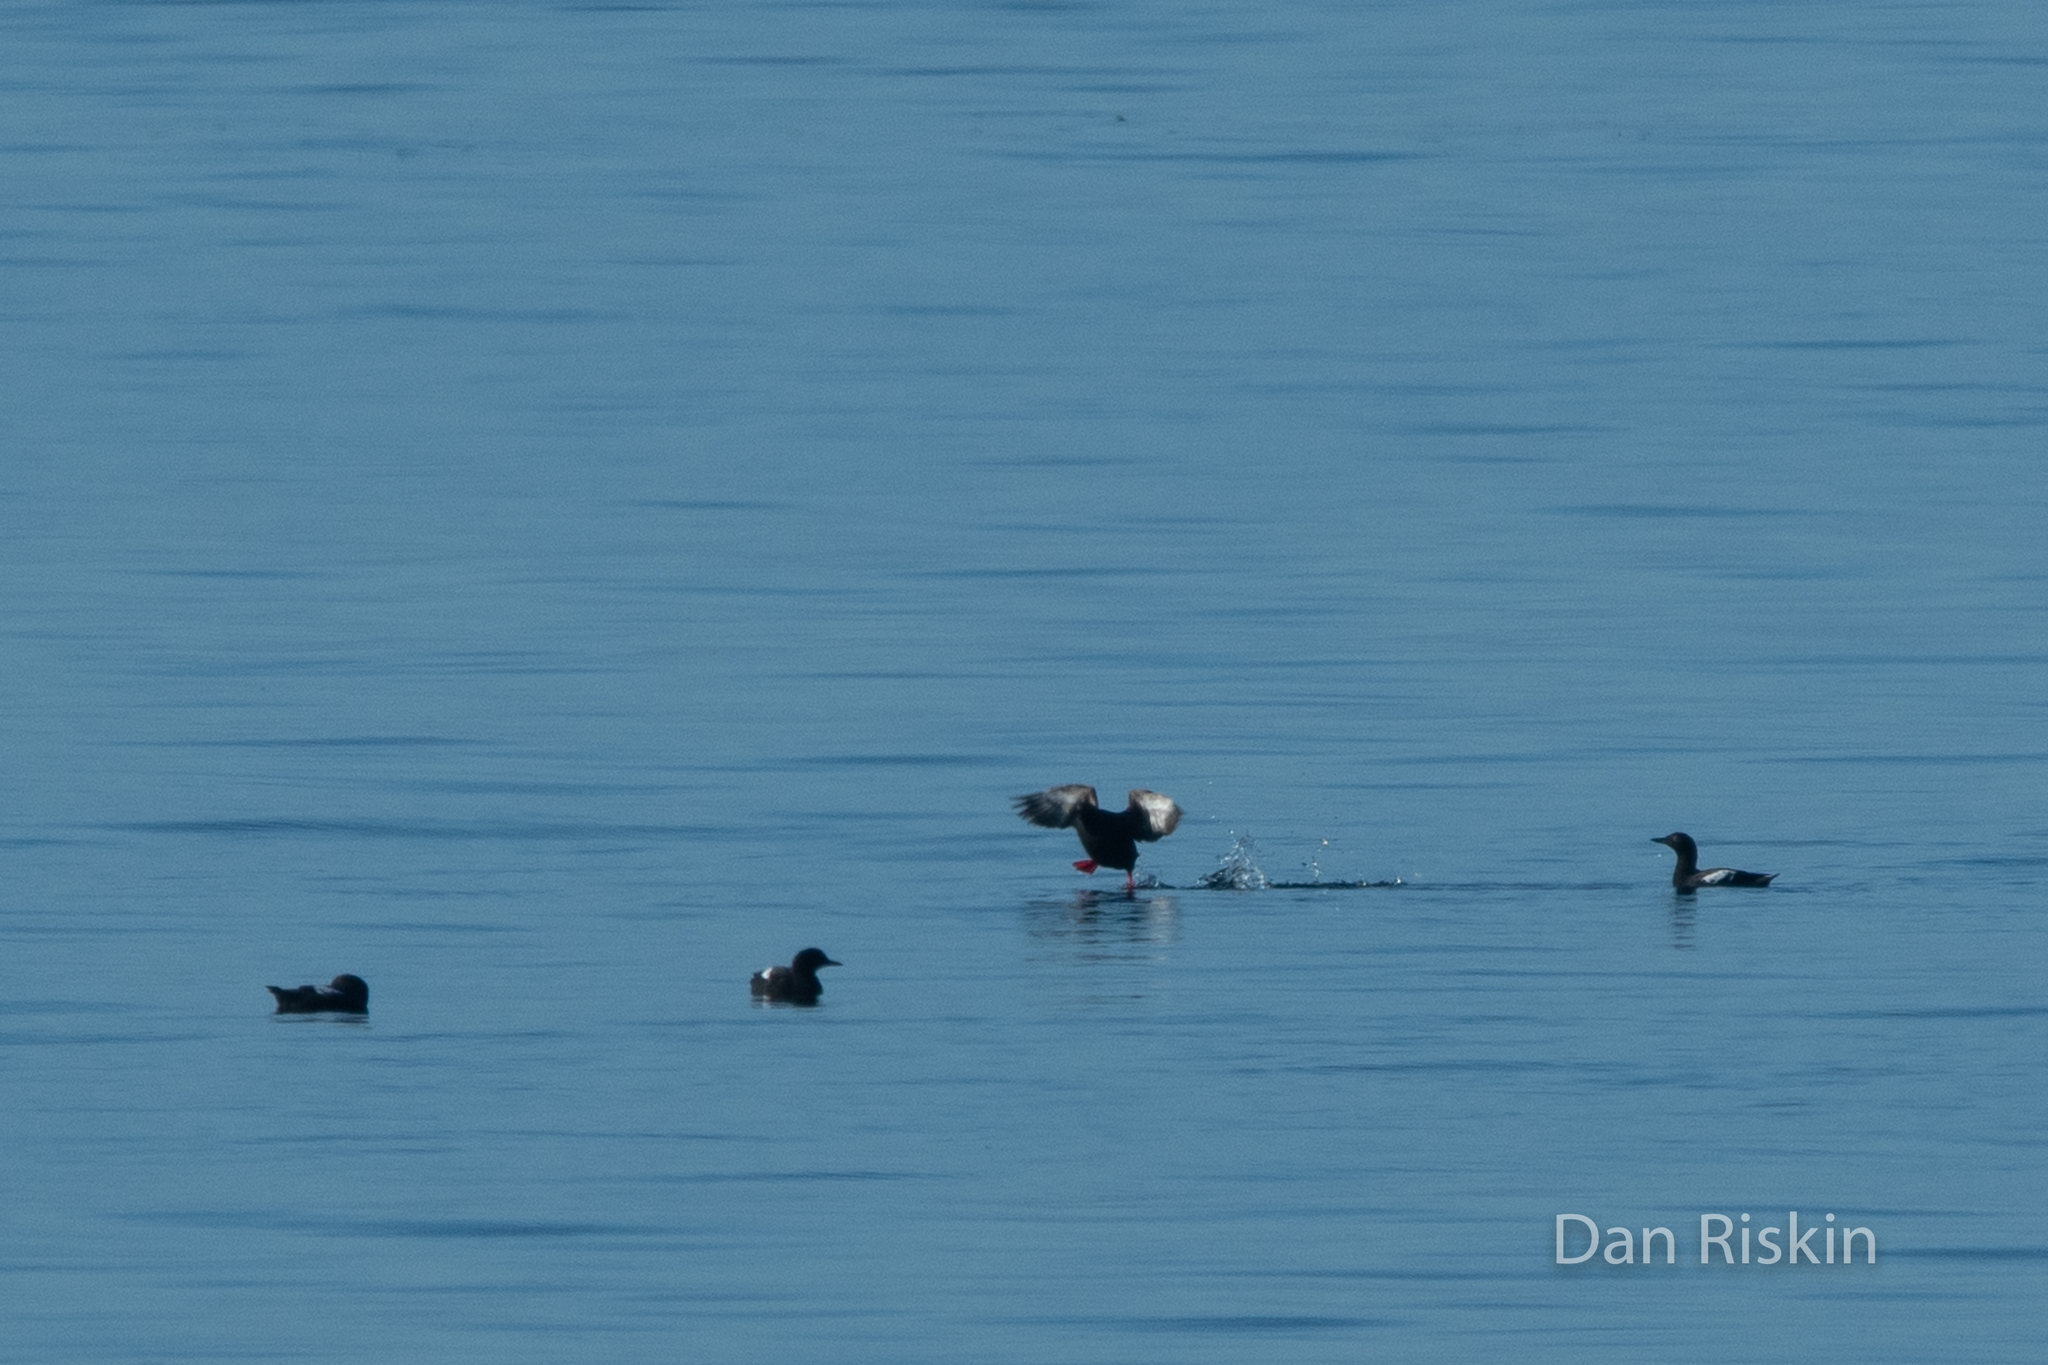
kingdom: Animalia
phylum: Chordata
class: Aves
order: Charadriiformes
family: Alcidae
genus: Cepphus
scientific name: Cepphus columba
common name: Pigeon guillemot
